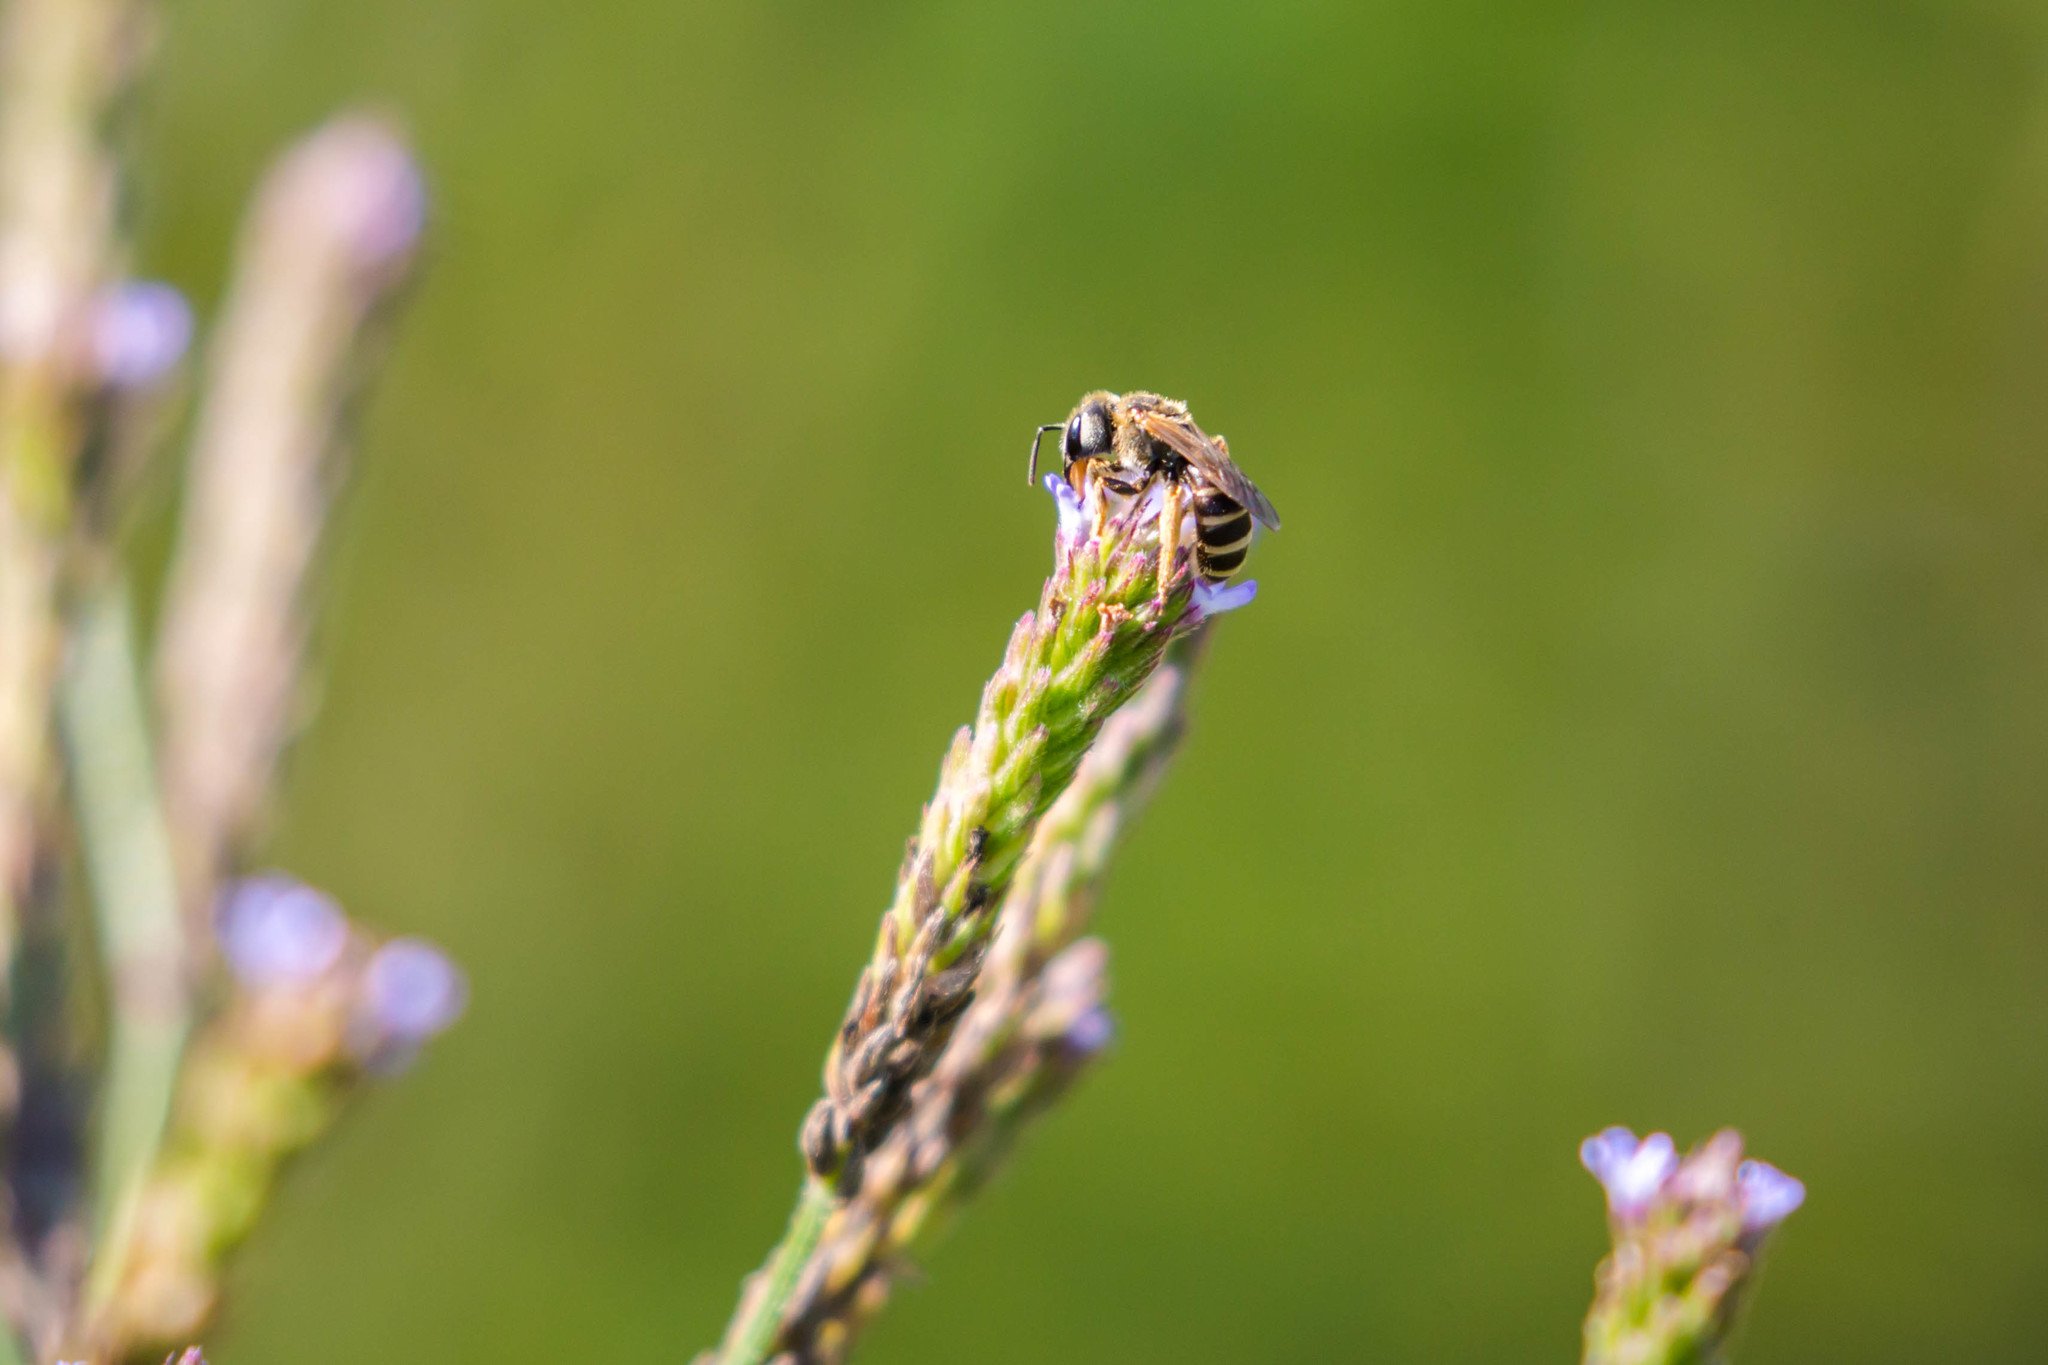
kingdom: Animalia
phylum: Arthropoda
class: Insecta
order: Hymenoptera
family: Halictidae
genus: Halictus
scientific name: Halictus ligatus
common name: Ligated furrow bee
